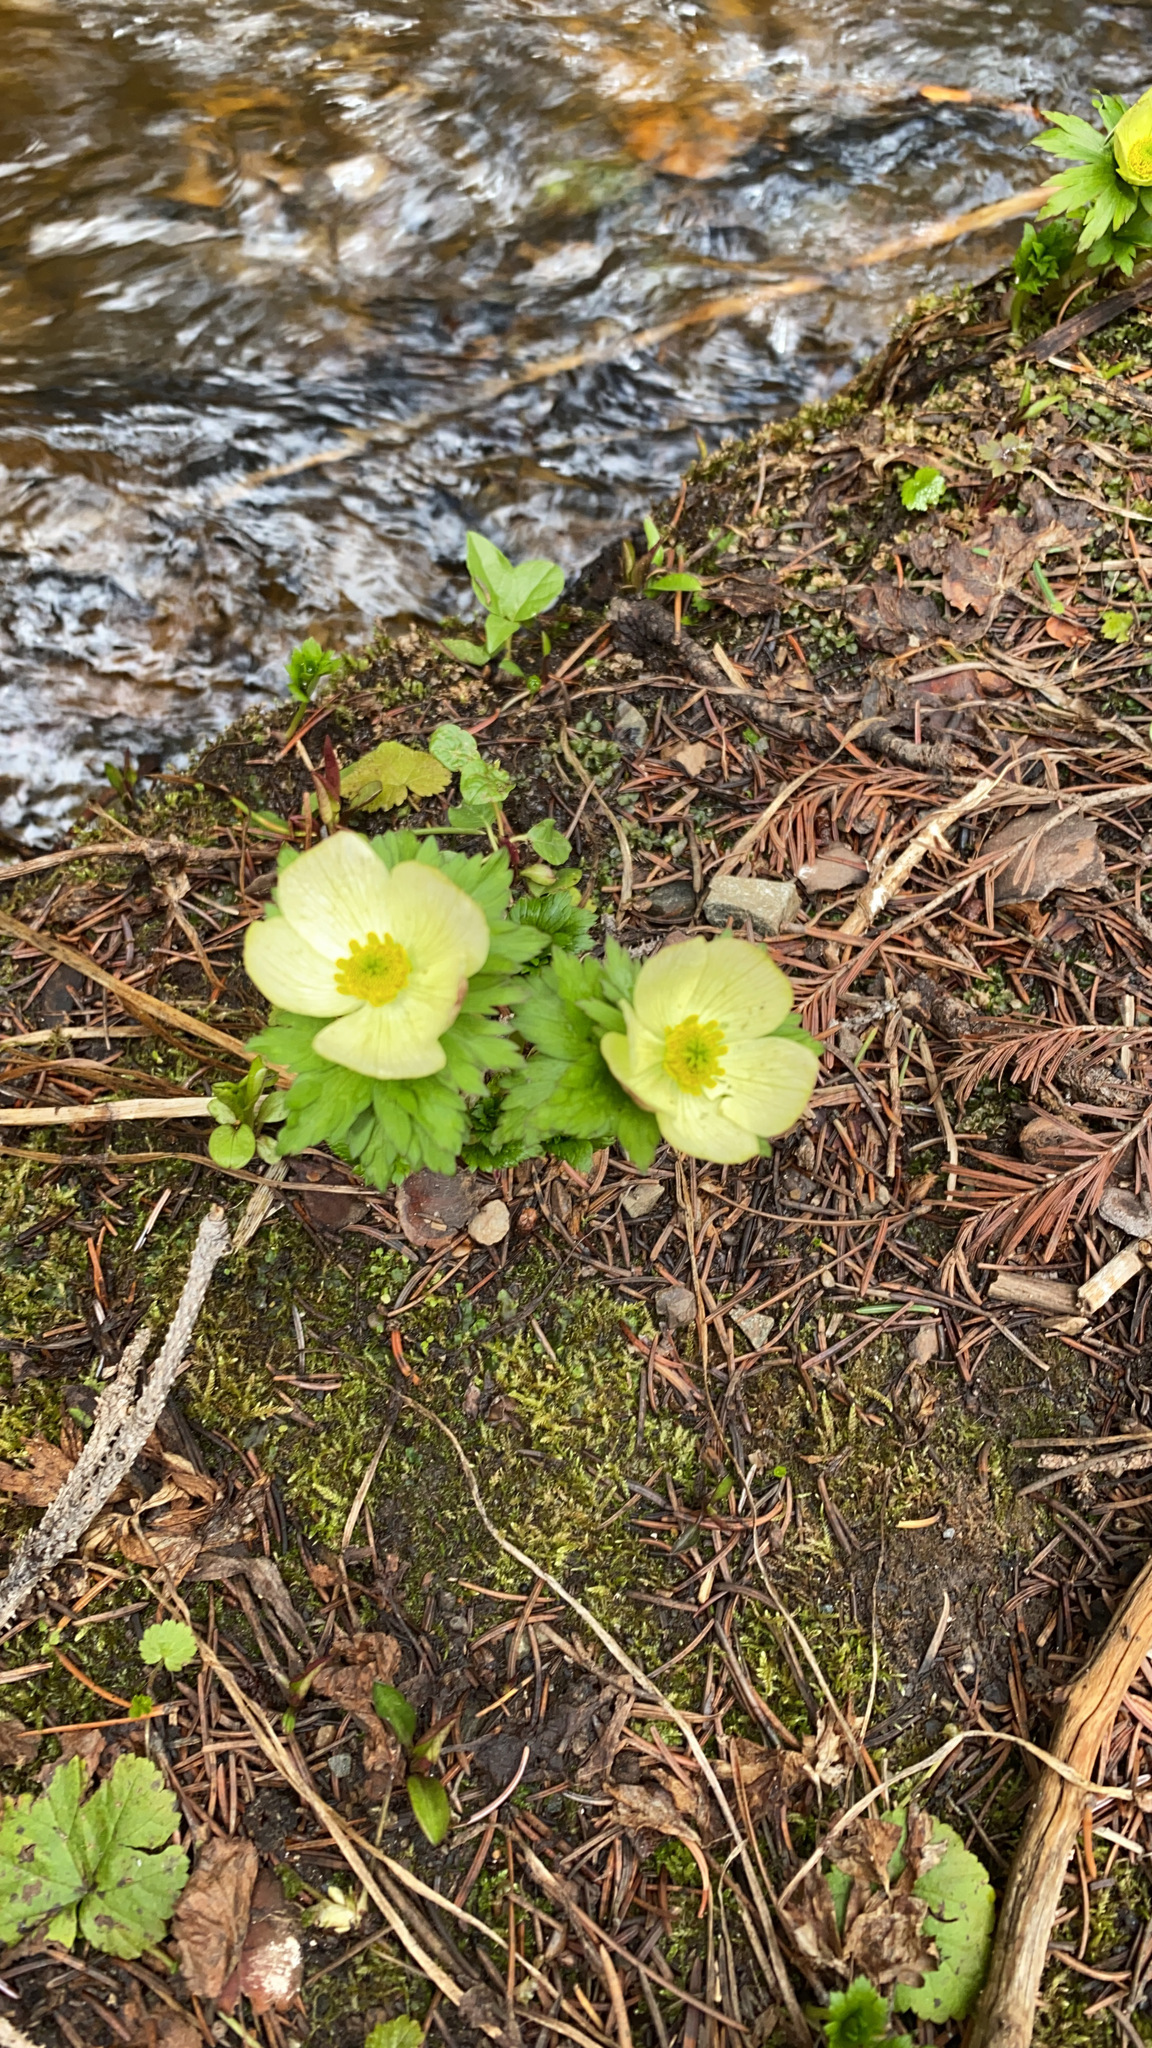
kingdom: Plantae
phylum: Tracheophyta
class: Magnoliopsida
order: Ranunculales
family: Ranunculaceae
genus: Trollius
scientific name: Trollius laxus
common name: American globeflower
